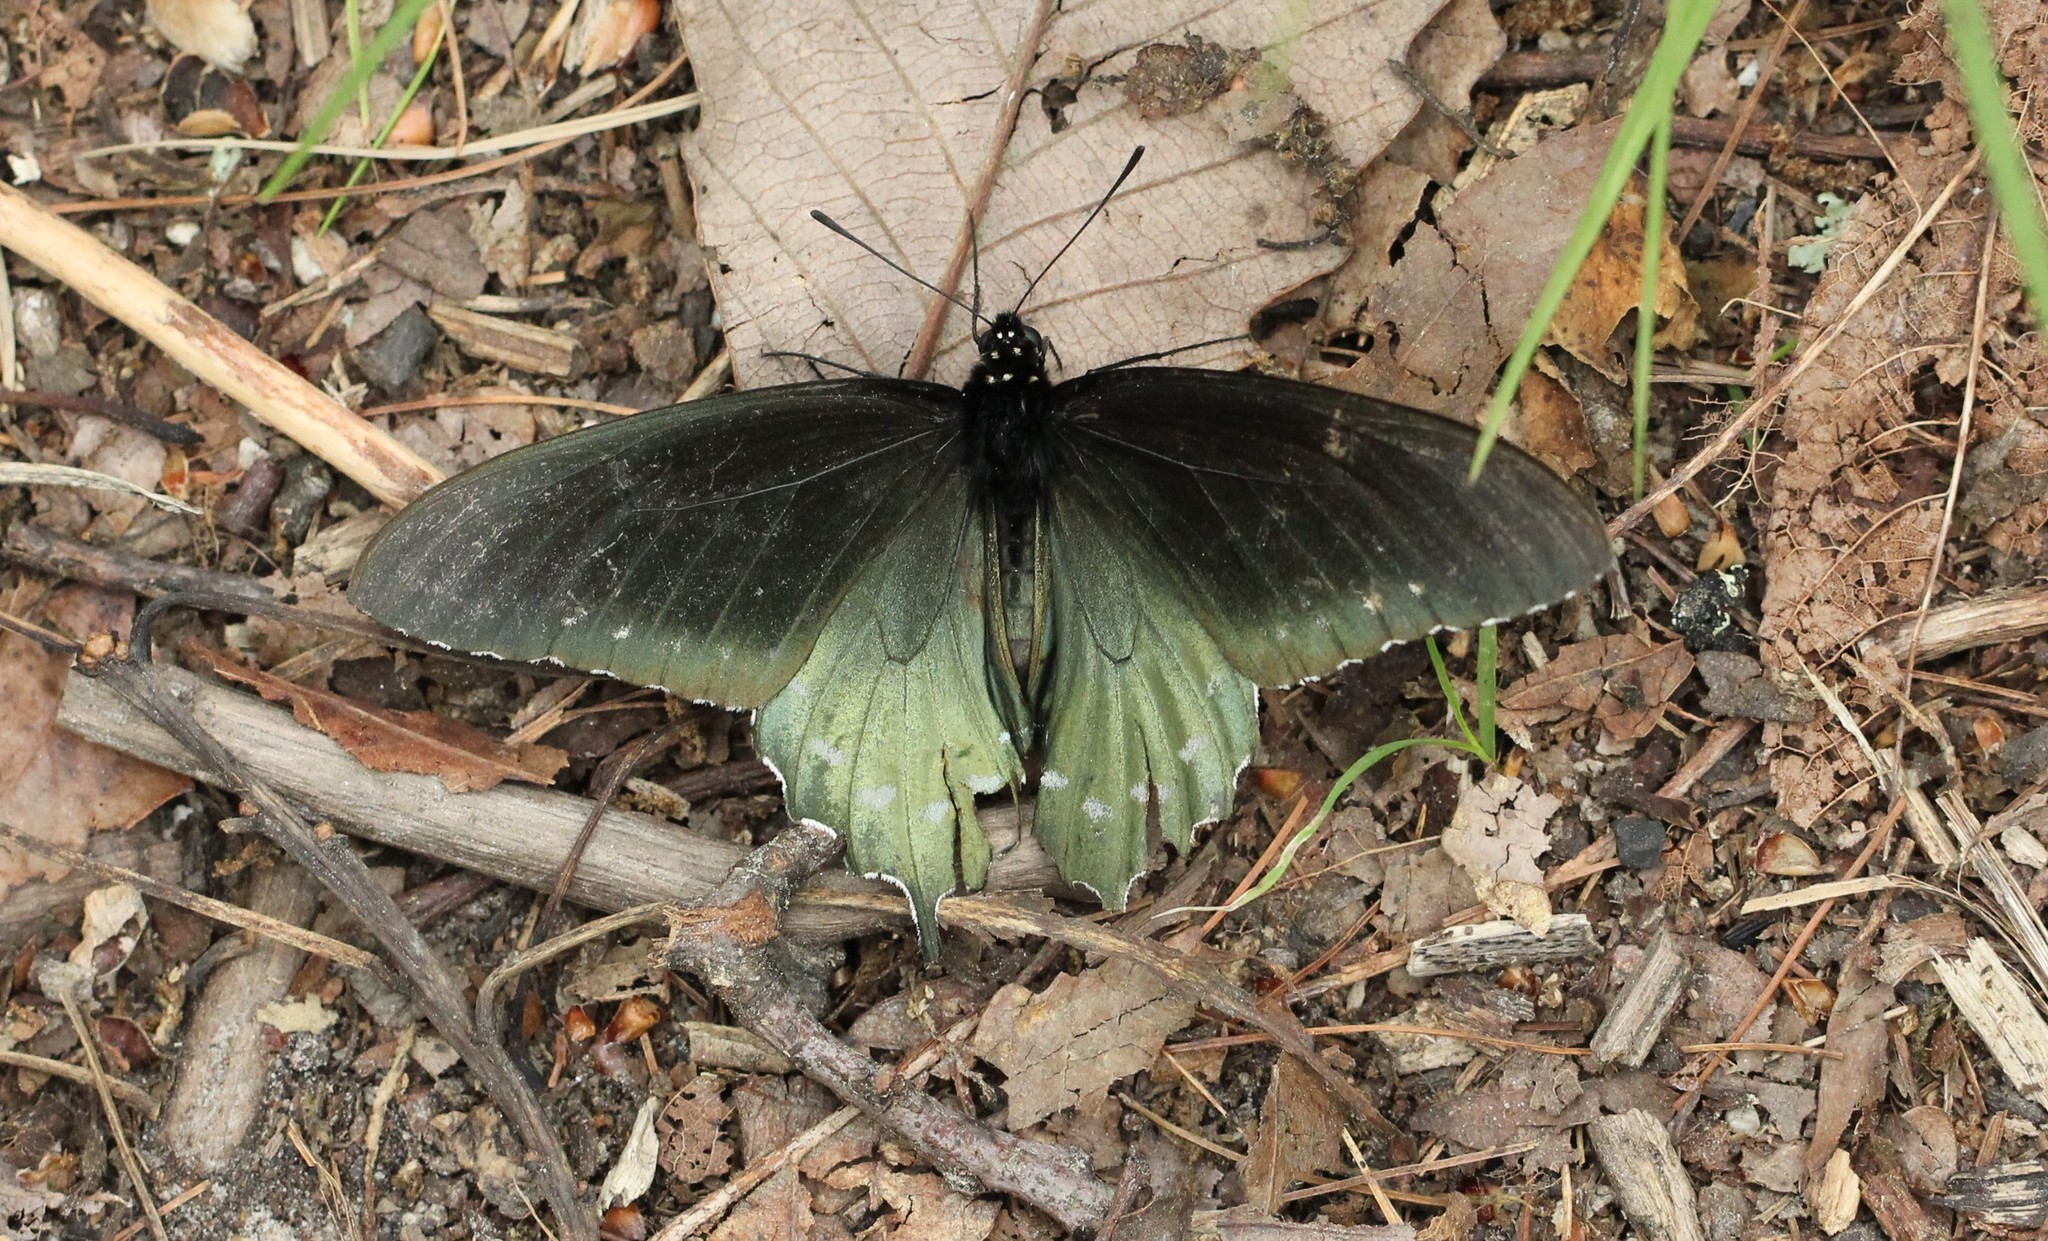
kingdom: Animalia
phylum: Arthropoda
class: Insecta
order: Lepidoptera
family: Papilionidae
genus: Battus
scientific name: Battus philenor
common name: Pipevine swallowtail
